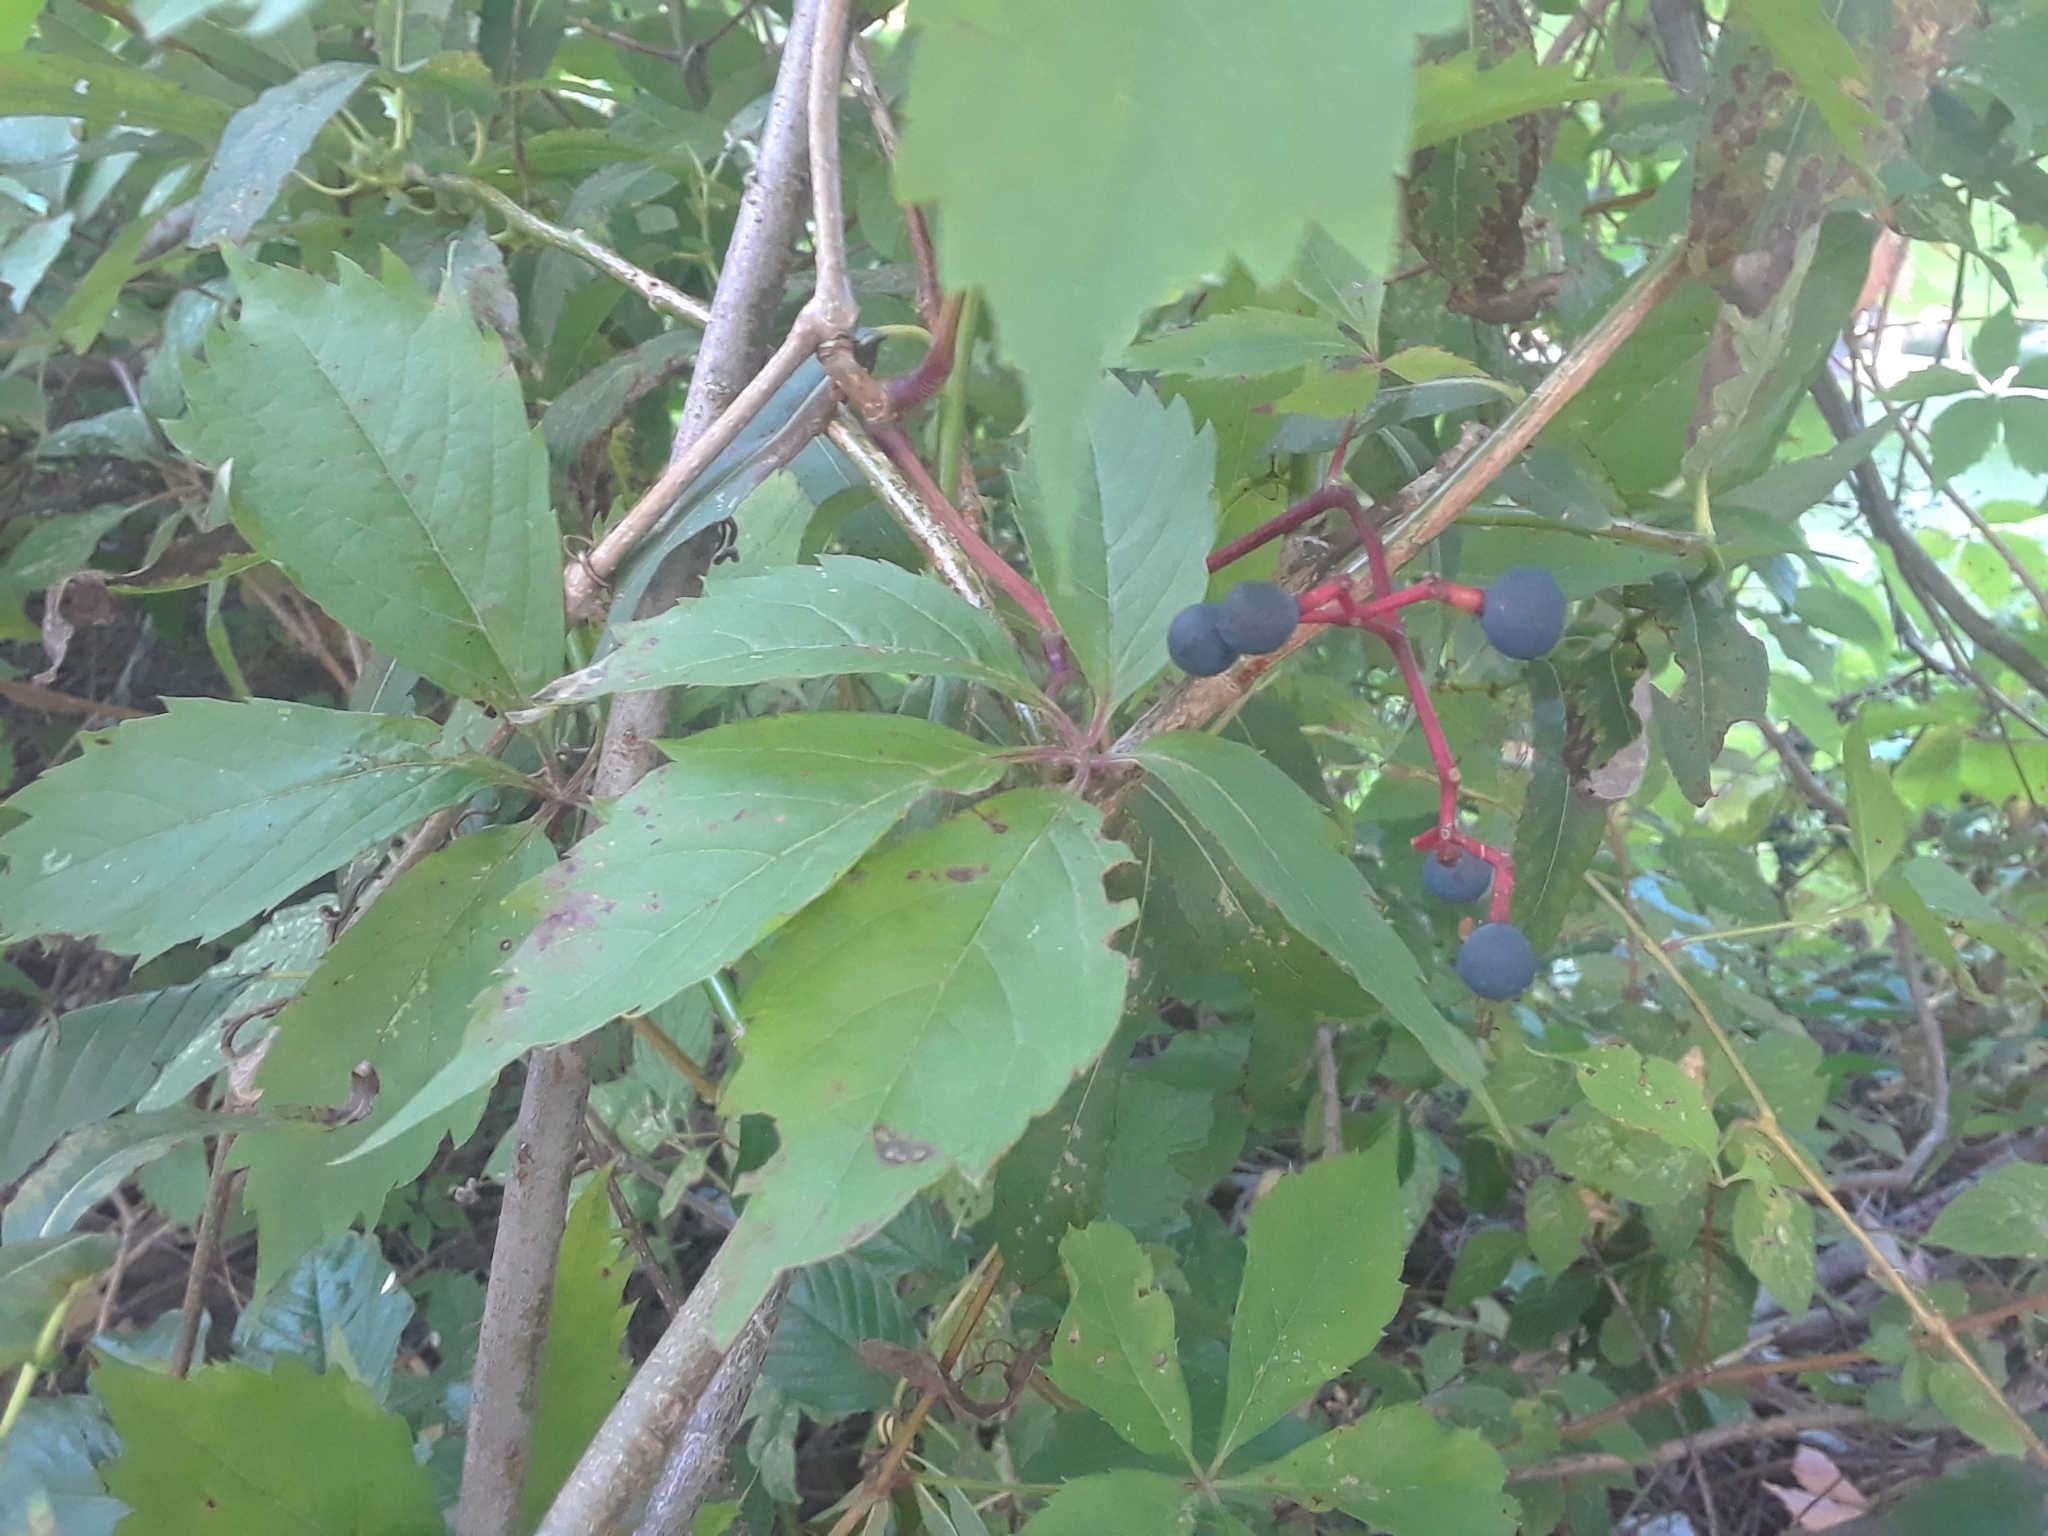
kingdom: Plantae
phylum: Tracheophyta
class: Magnoliopsida
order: Vitales
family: Vitaceae
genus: Parthenocissus
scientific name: Parthenocissus quinquefolia
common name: Virginia-creeper
